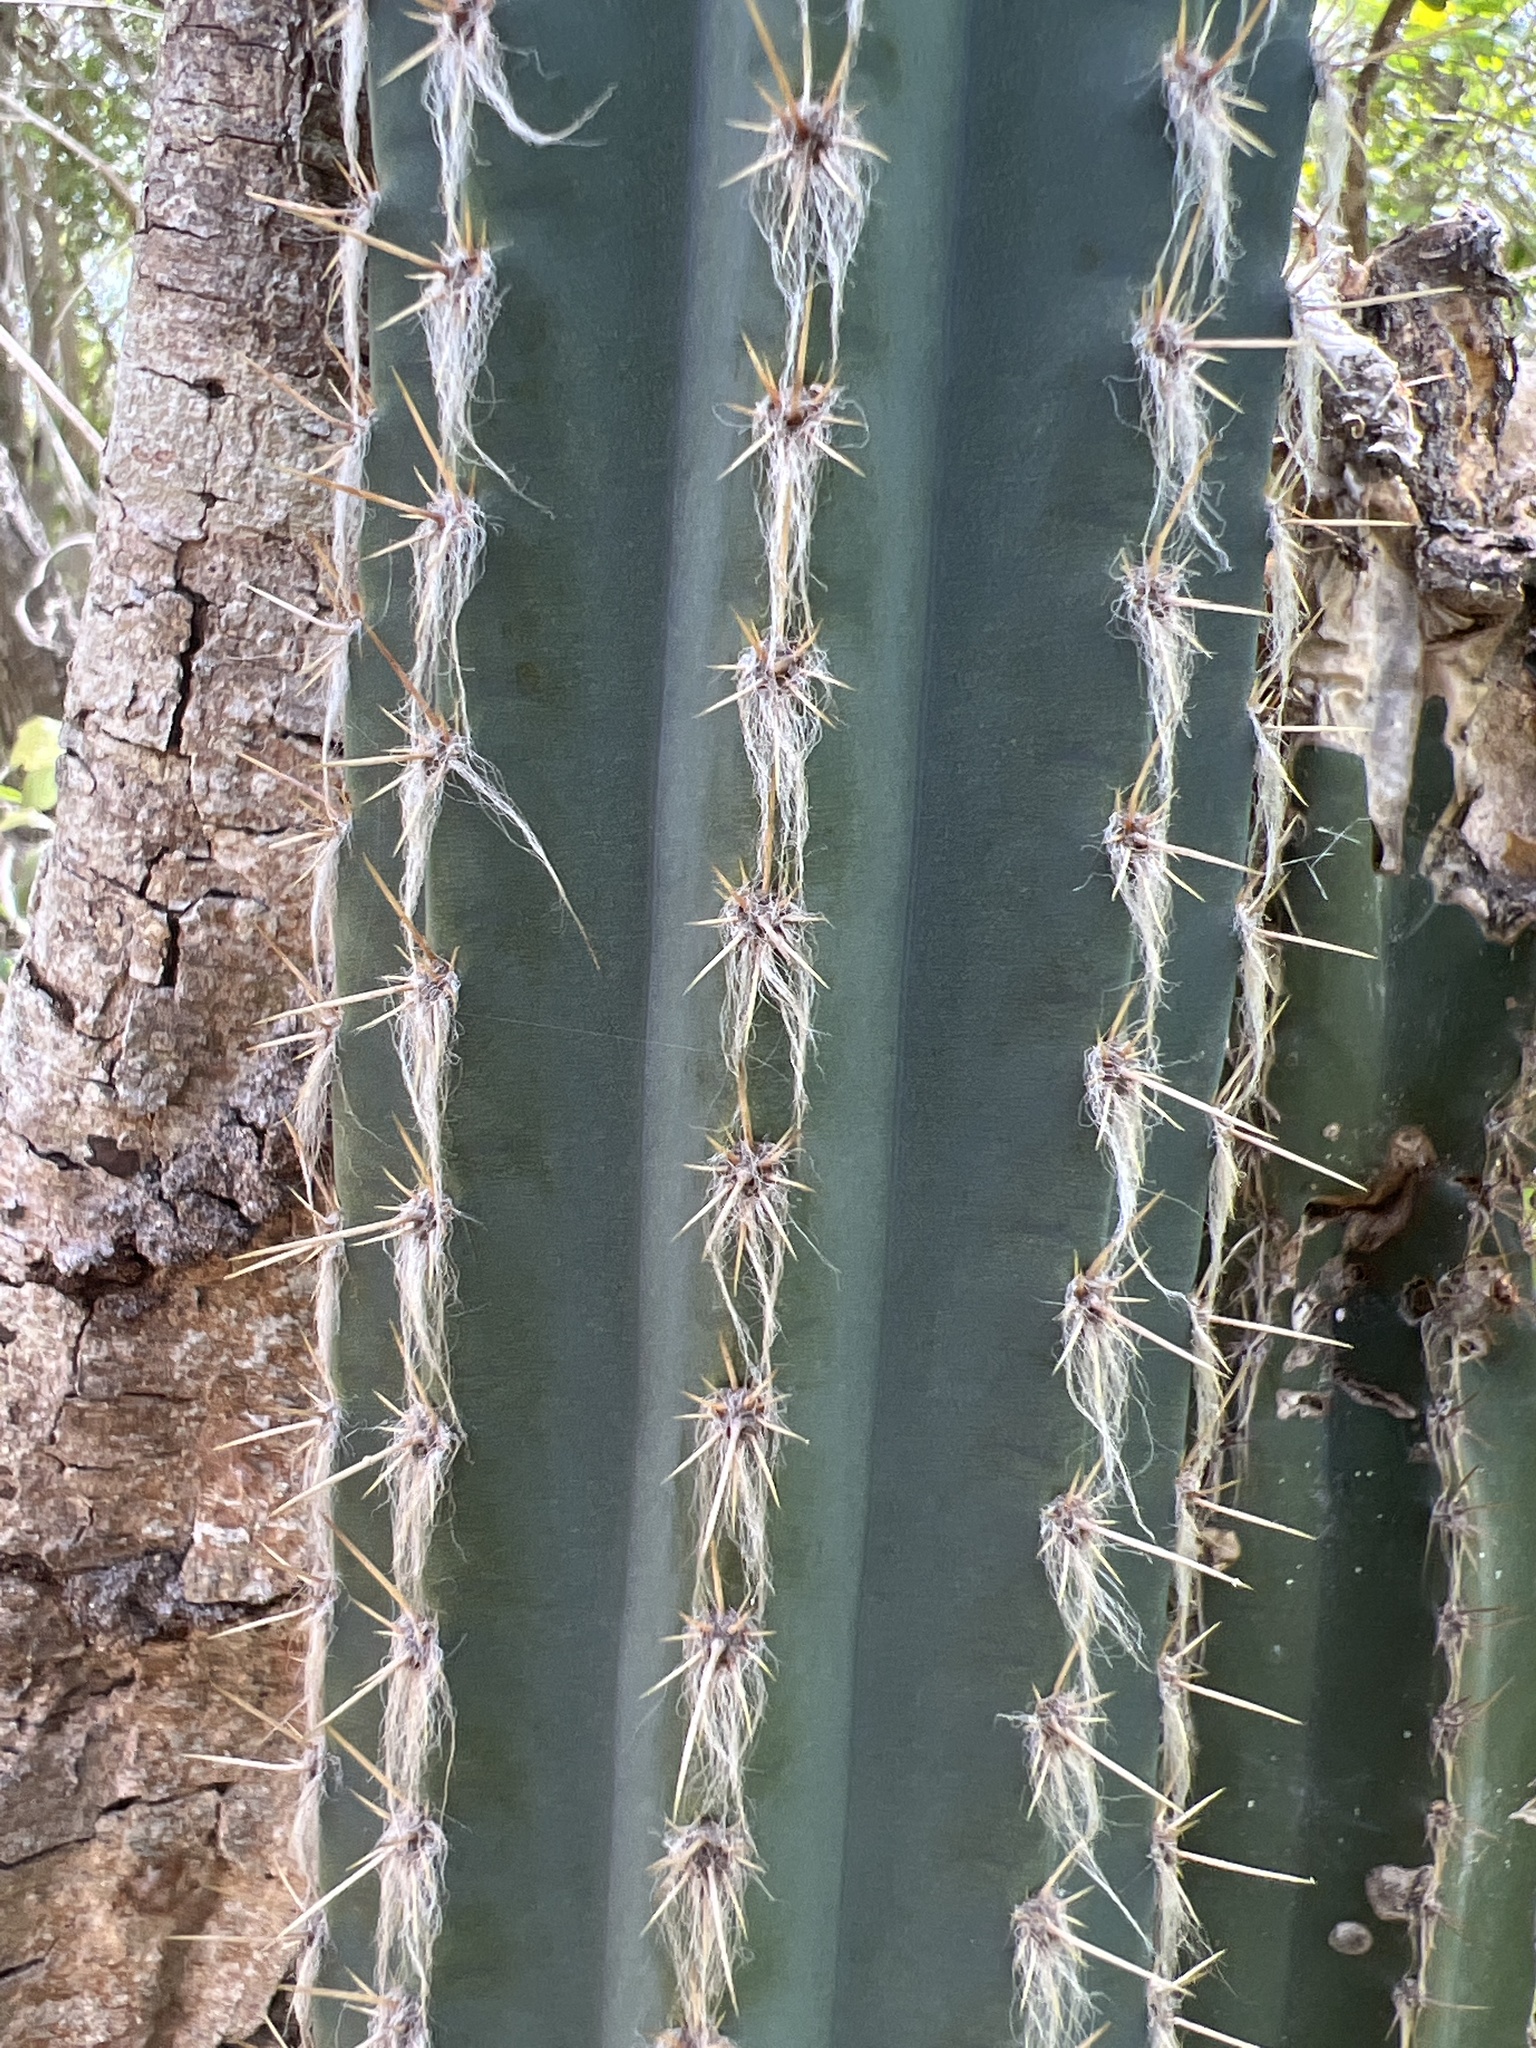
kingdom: Plantae
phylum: Tracheophyta
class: Magnoliopsida
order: Caryophyllales
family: Cactaceae
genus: Pilosocereus
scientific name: Pilosocereus armatus
